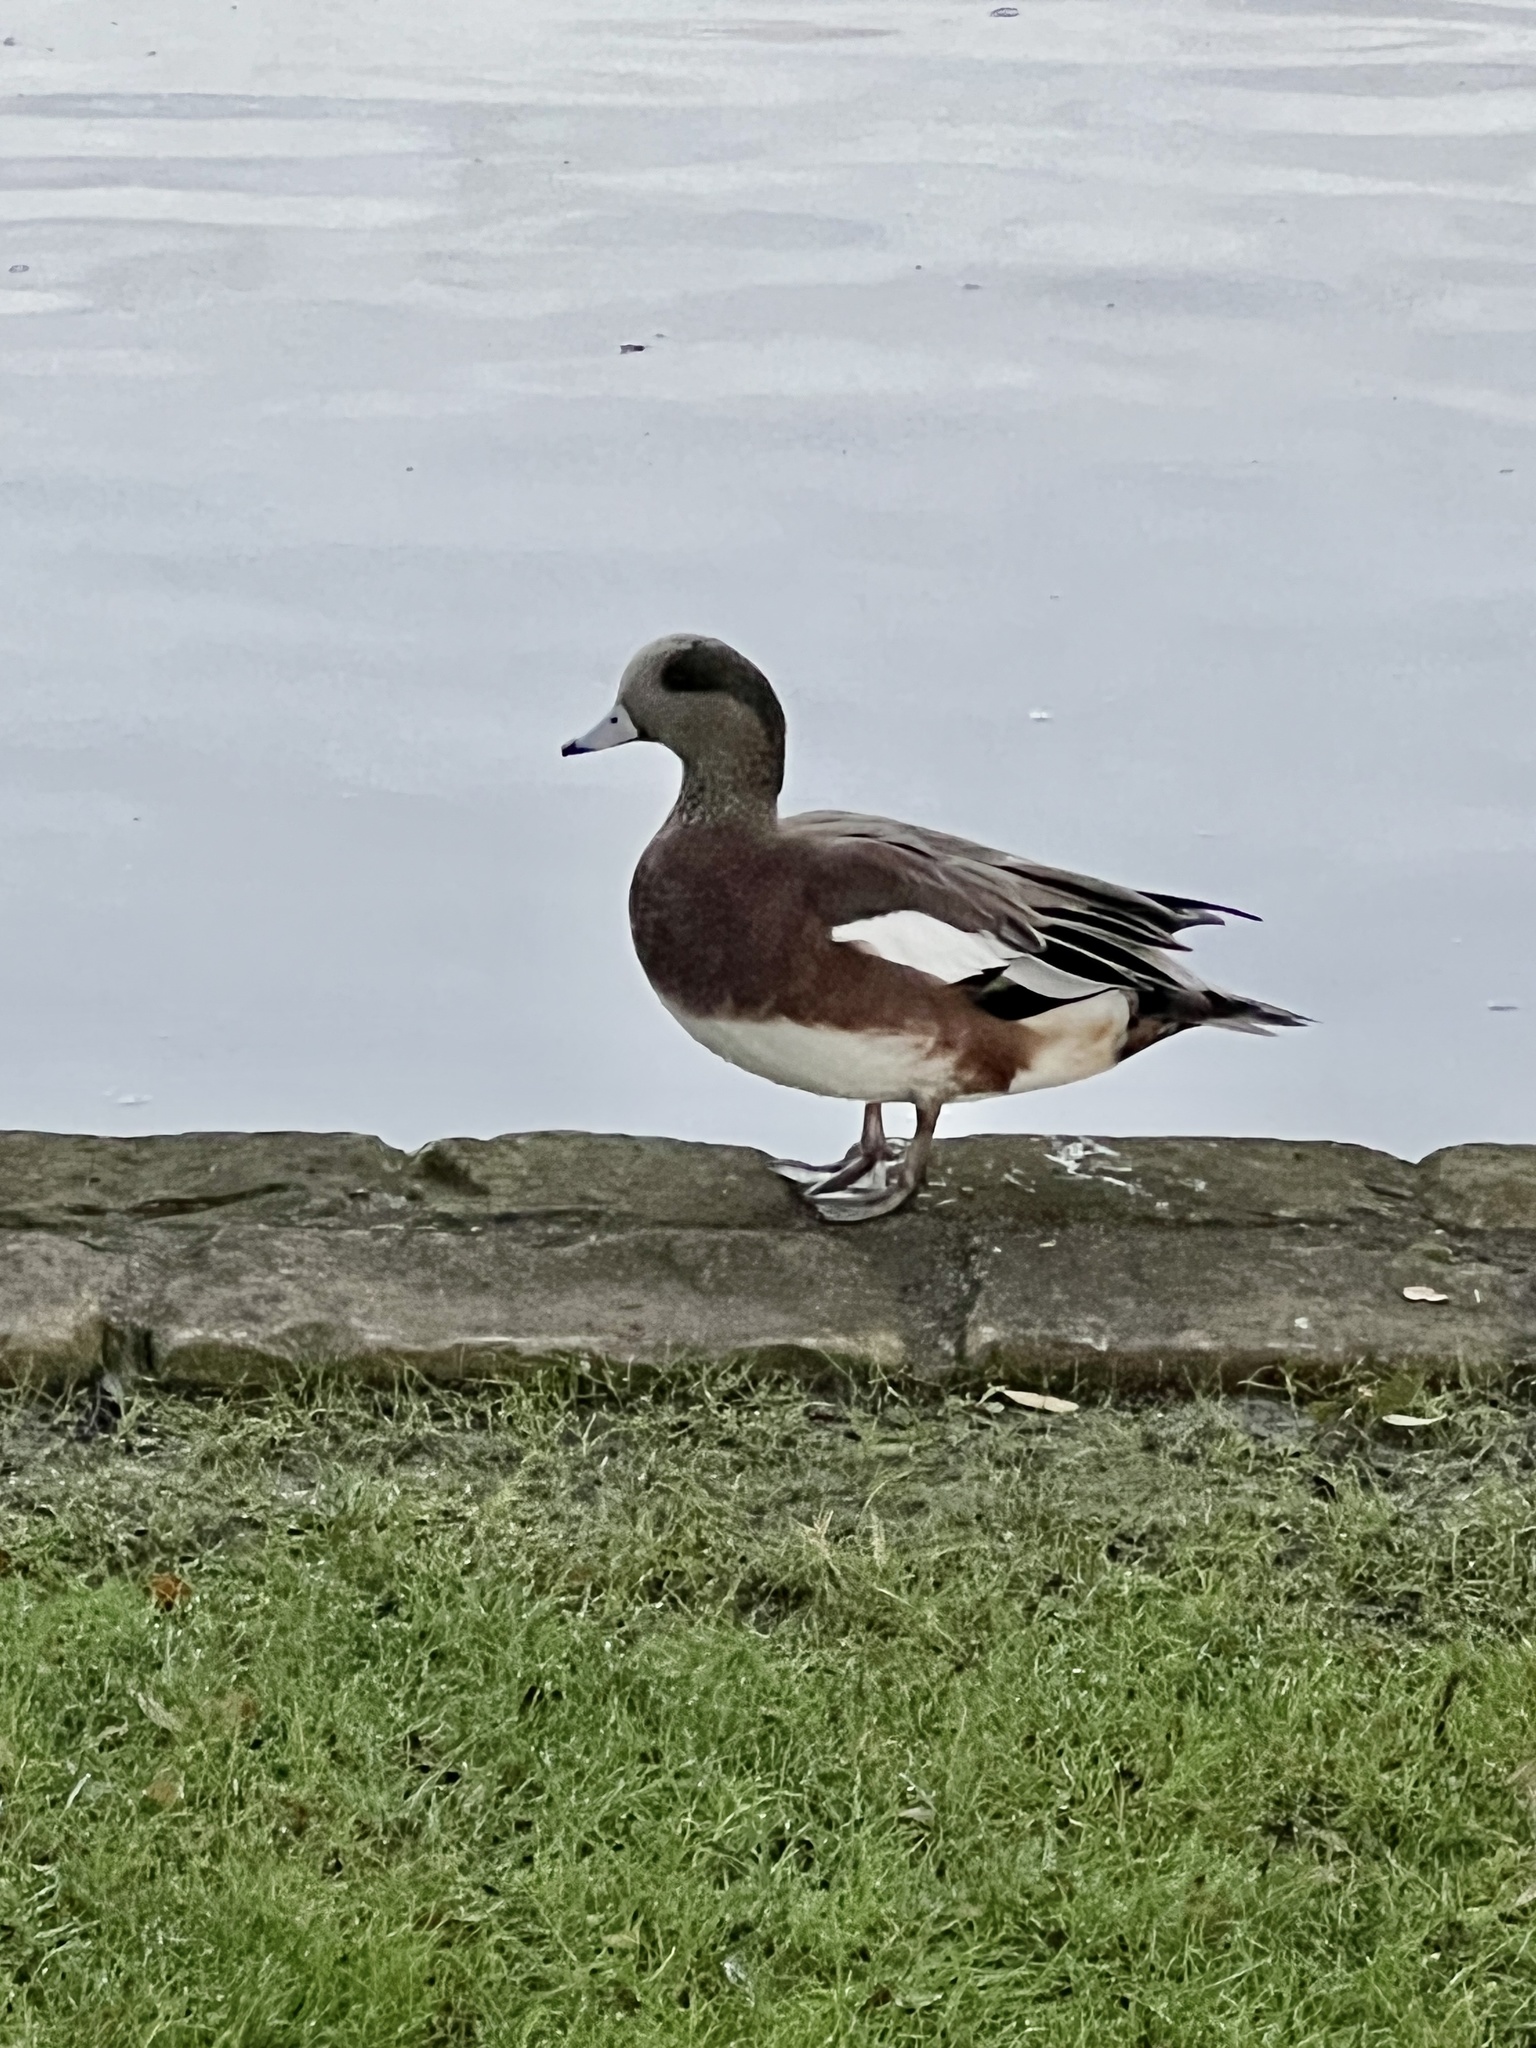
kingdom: Animalia
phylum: Chordata
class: Aves
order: Anseriformes
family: Anatidae
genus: Mareca
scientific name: Mareca americana
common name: American wigeon
